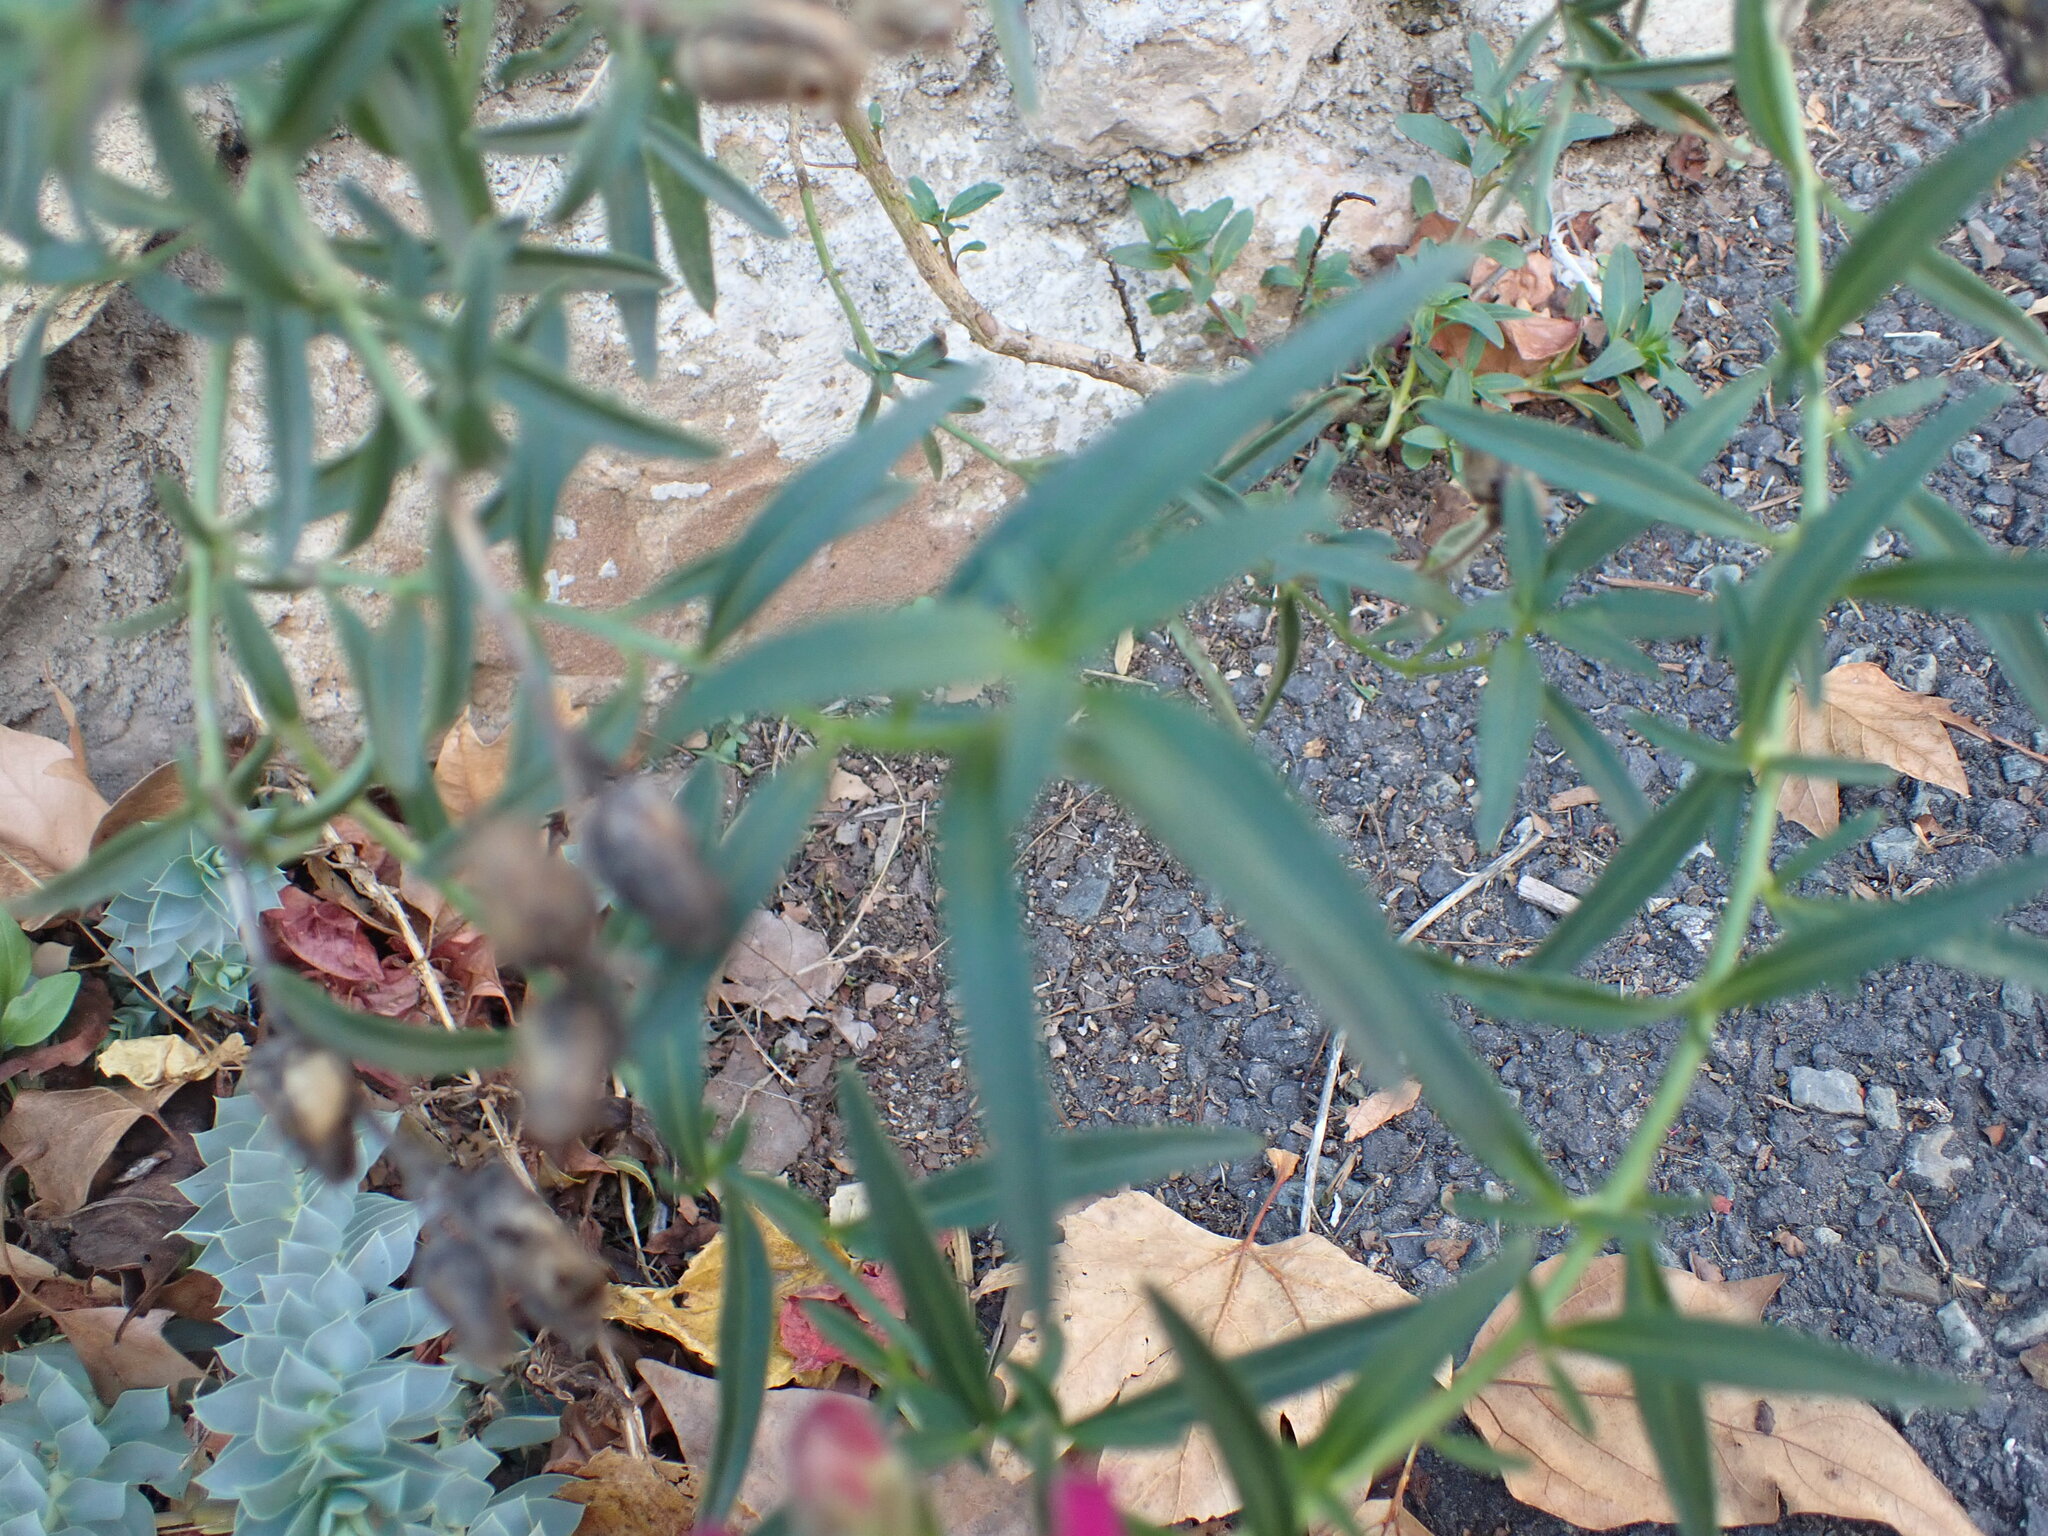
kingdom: Plantae
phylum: Tracheophyta
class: Magnoliopsida
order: Lamiales
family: Plantaginaceae
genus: Antirrhinum
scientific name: Antirrhinum majus
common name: Snapdragon
